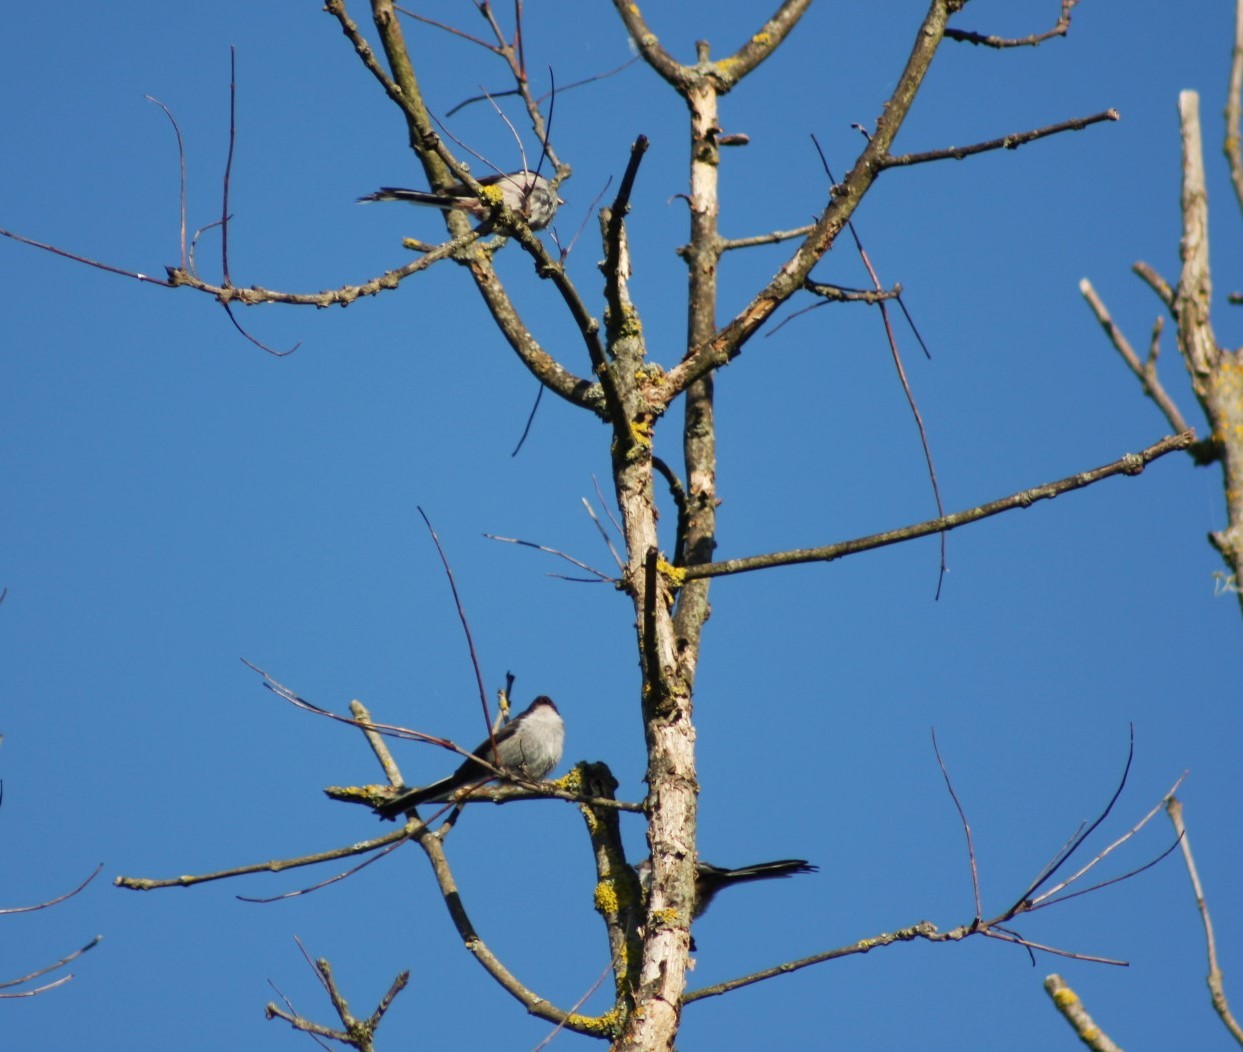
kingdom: Animalia
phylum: Chordata
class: Aves
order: Passeriformes
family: Aegithalidae
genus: Aegithalos
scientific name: Aegithalos caudatus
